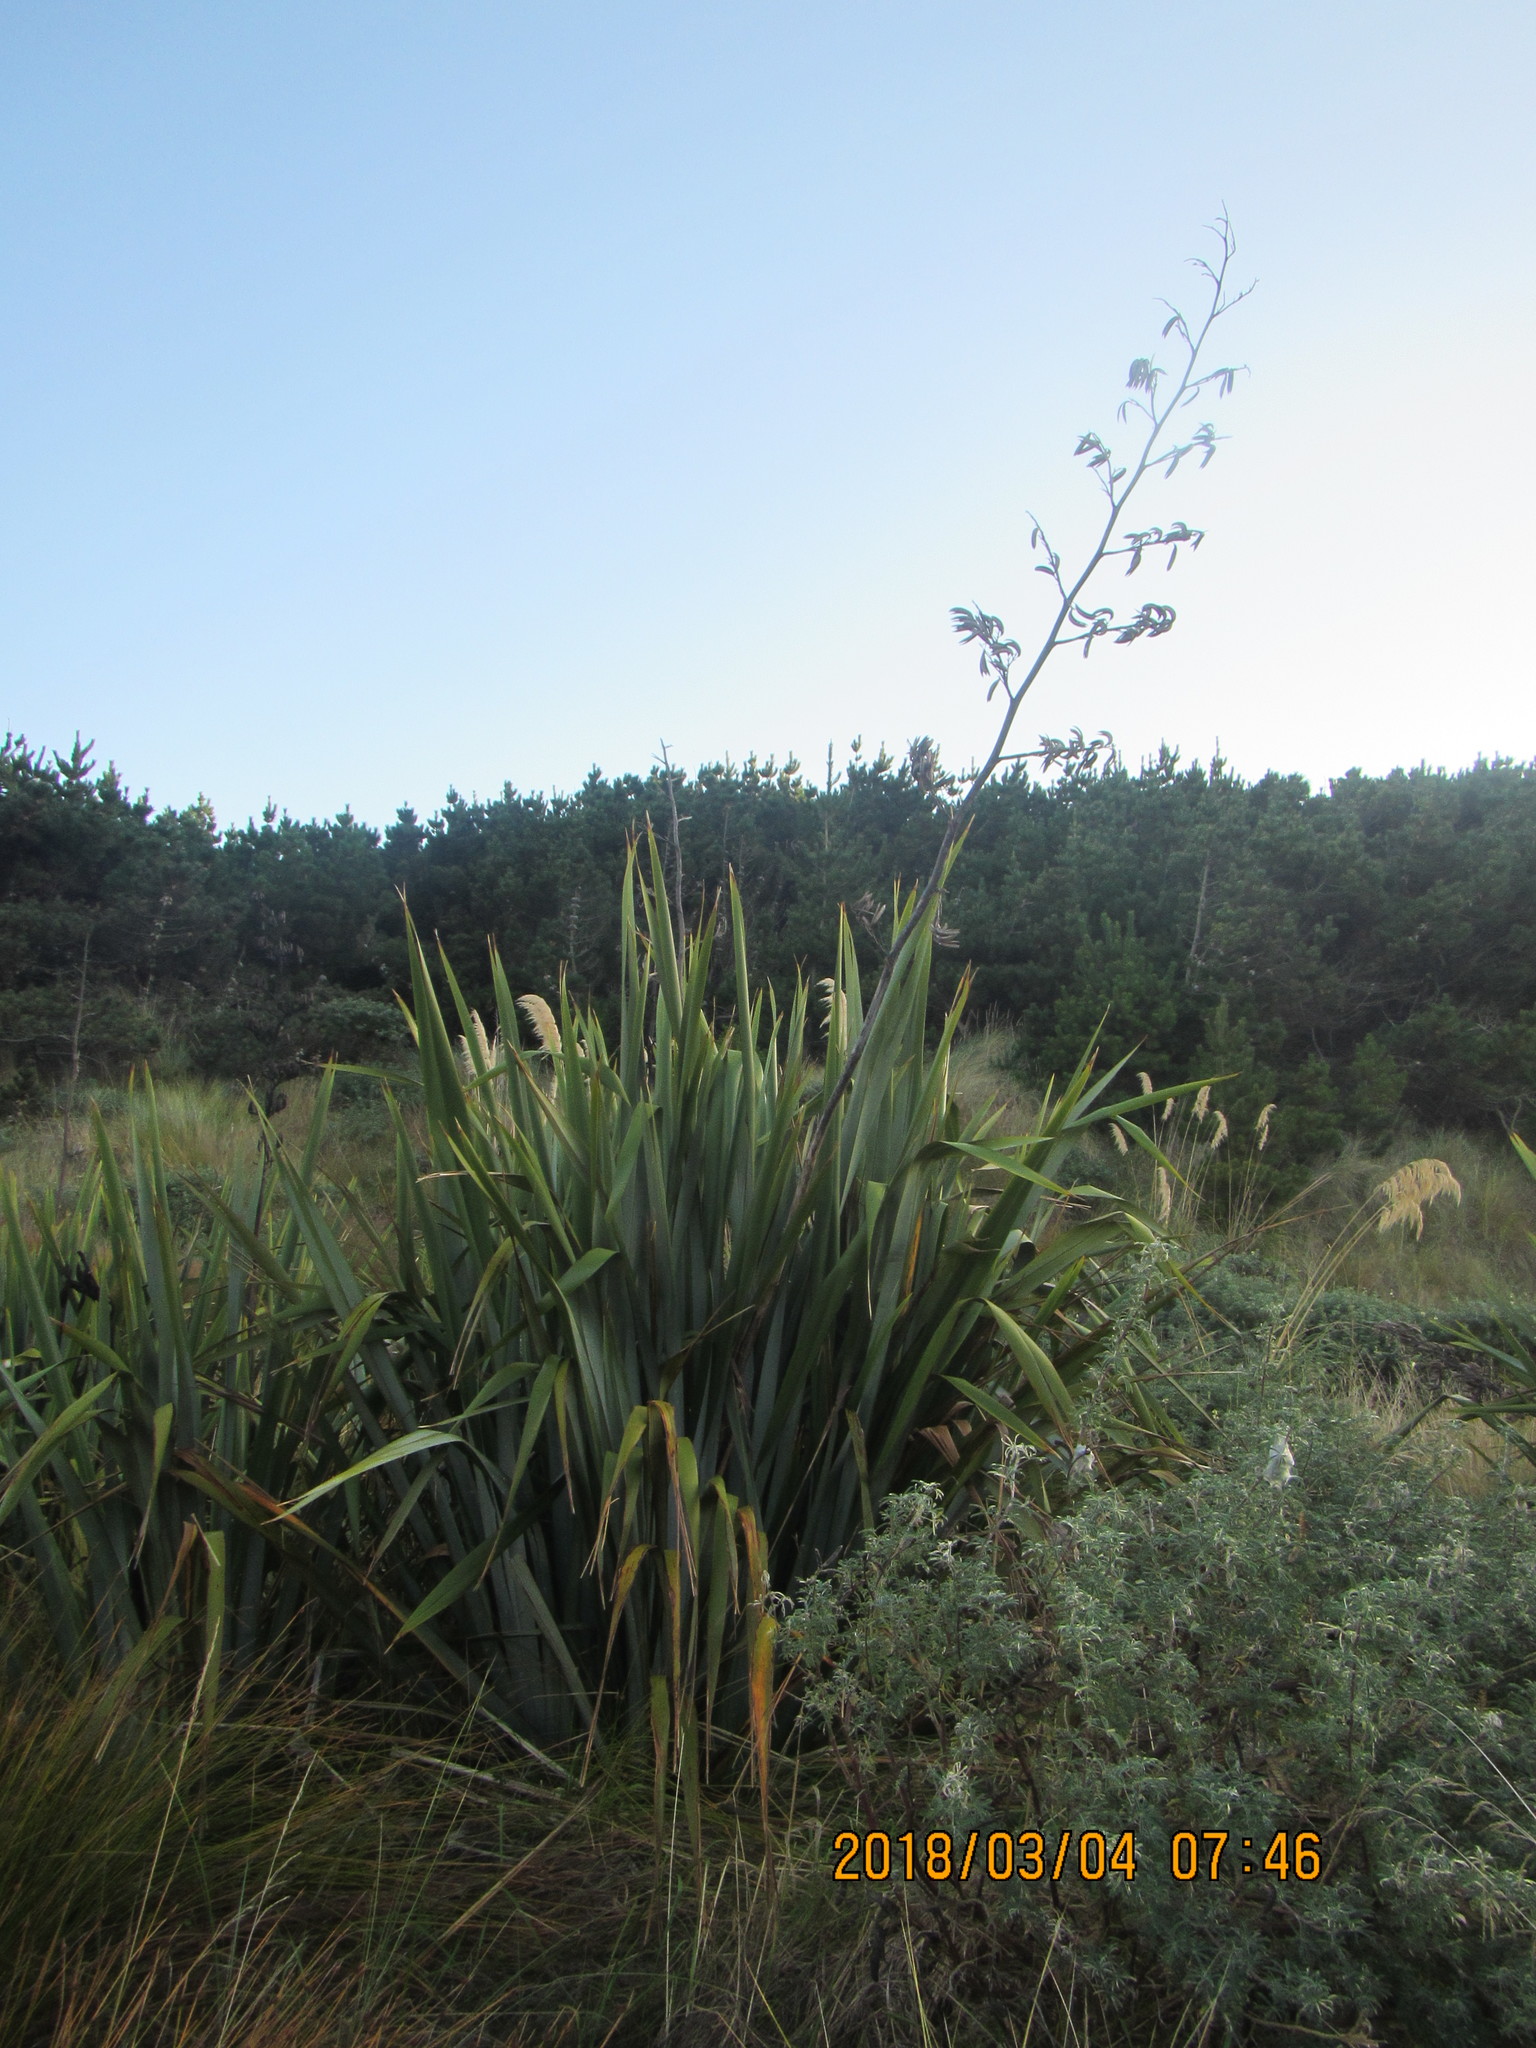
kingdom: Plantae
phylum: Tracheophyta
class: Liliopsida
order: Asparagales
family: Asphodelaceae
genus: Phormium
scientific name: Phormium tenax
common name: New zealand flax
